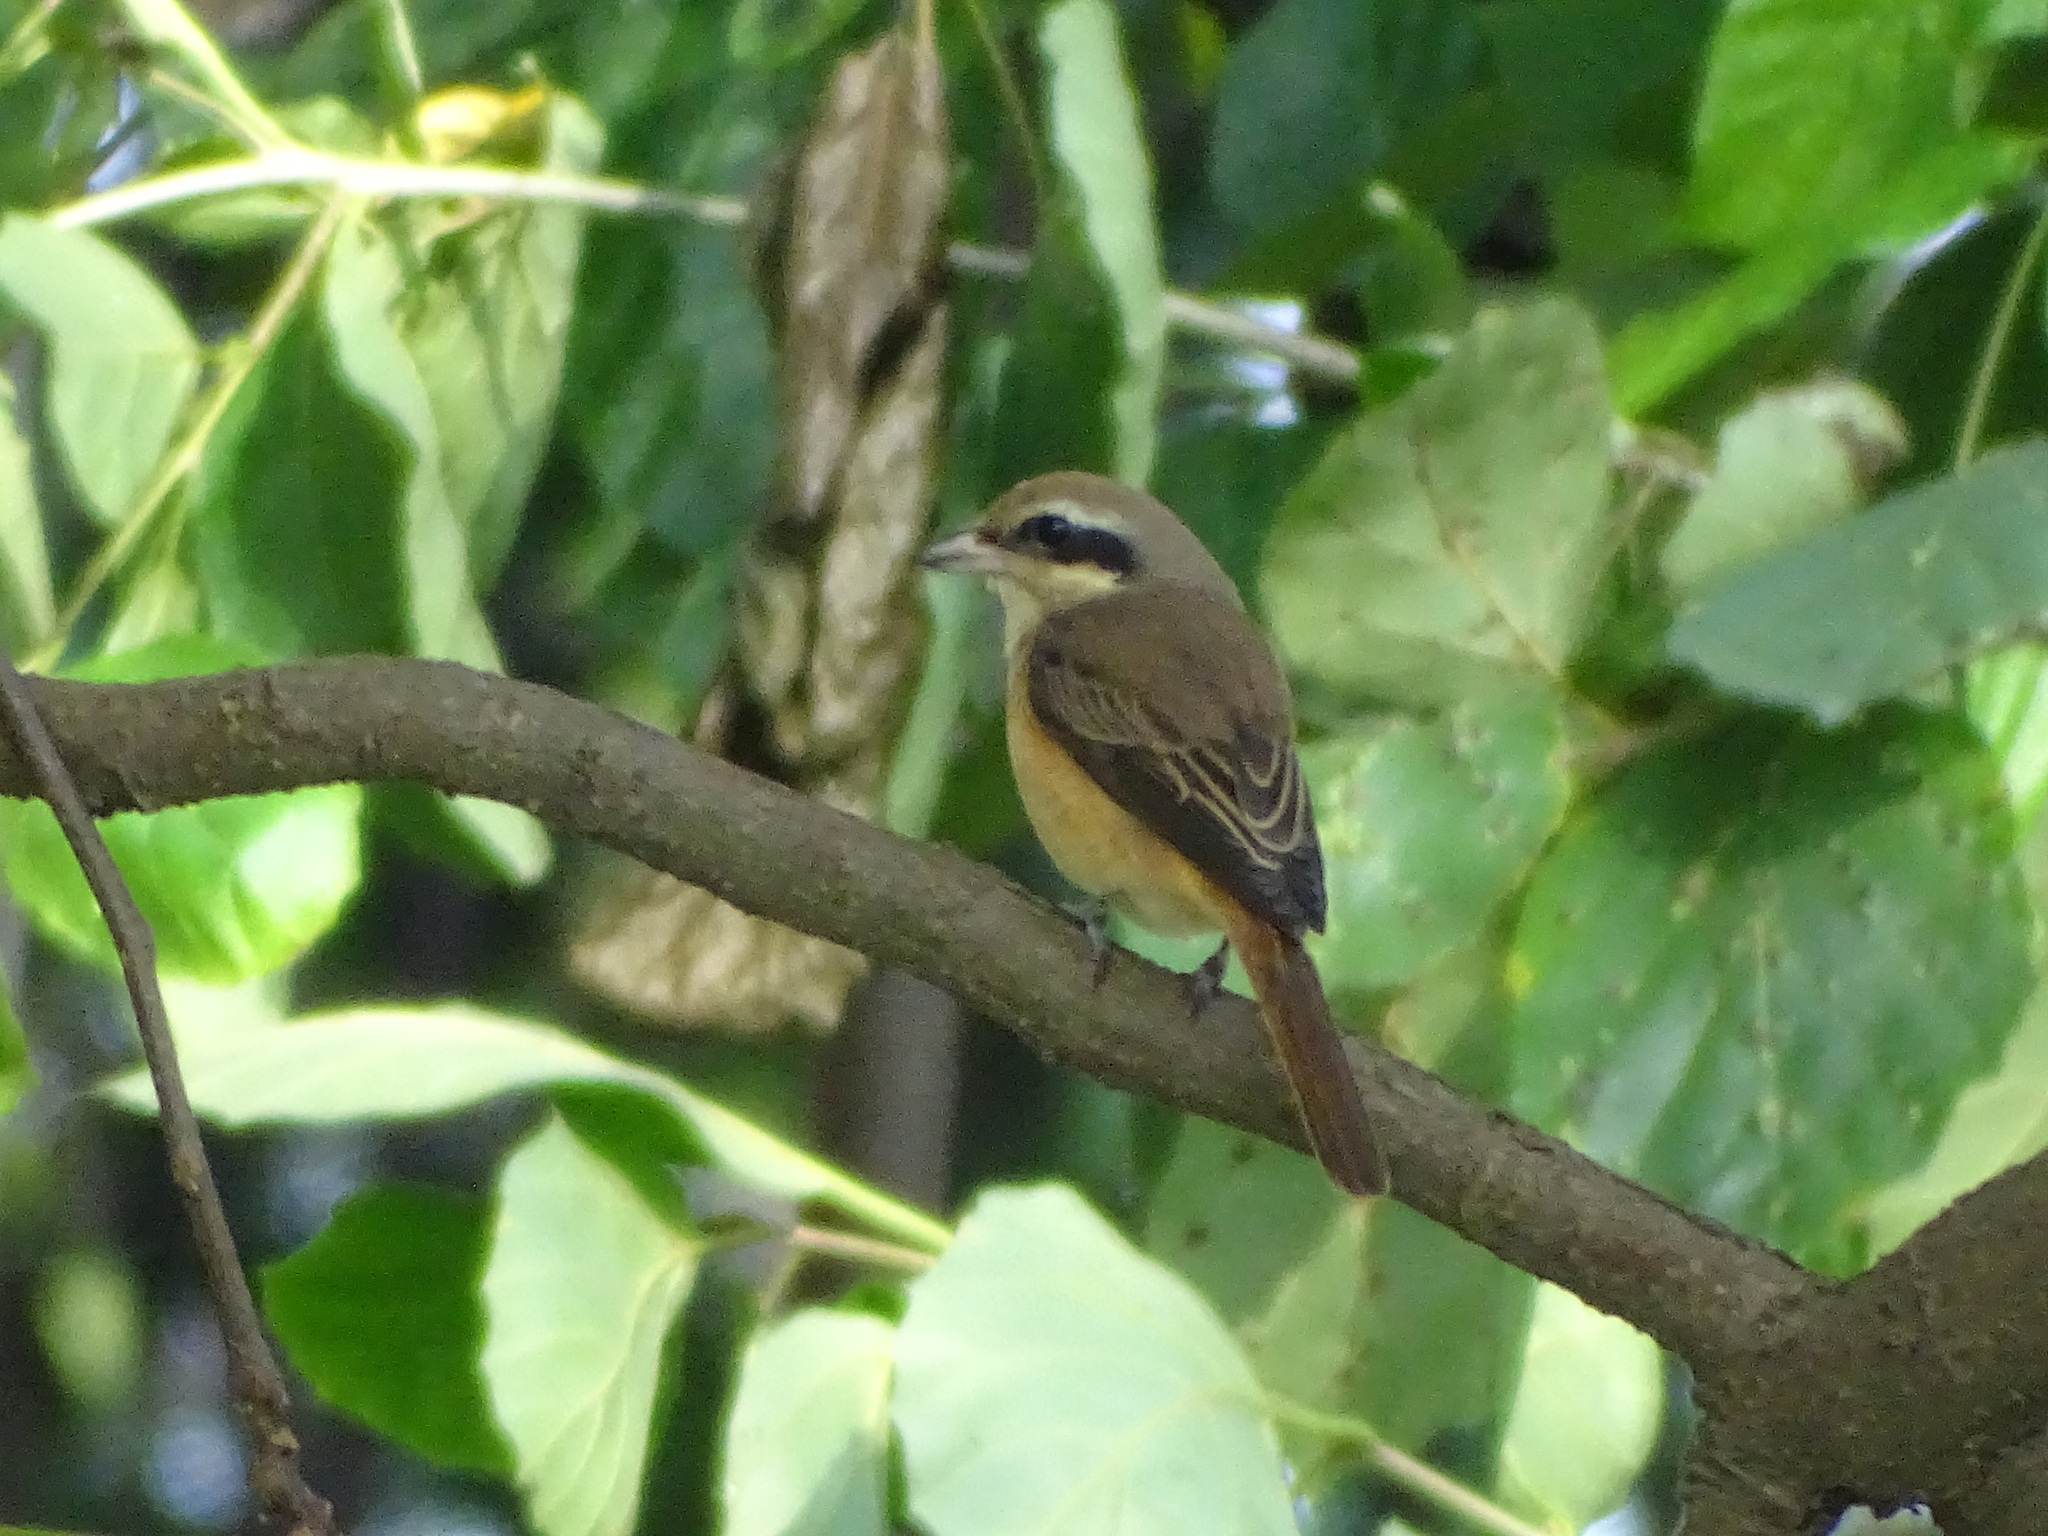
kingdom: Animalia
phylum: Chordata
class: Aves
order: Passeriformes
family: Laniidae
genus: Lanius
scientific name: Lanius cristatus
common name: Brown shrike
